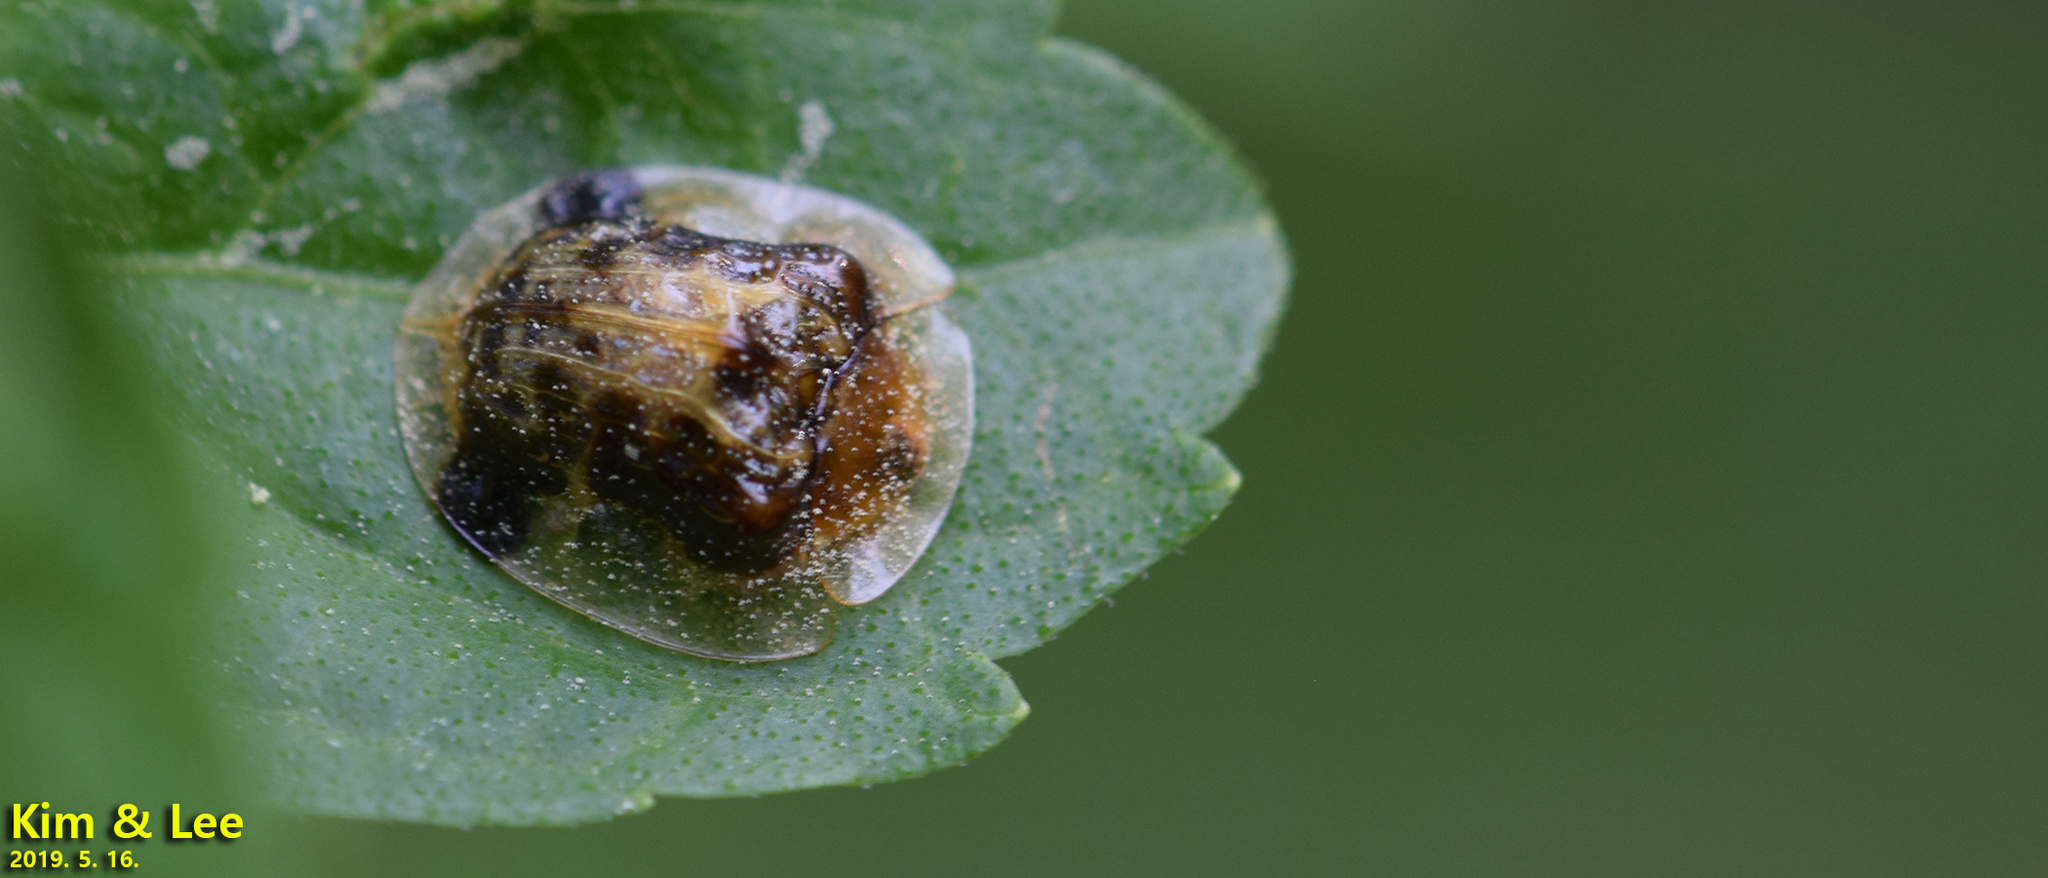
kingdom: Animalia
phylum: Arthropoda
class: Insecta
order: Coleoptera
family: Chrysomelidae
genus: Thlaspida
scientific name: Thlaspida biramosa
